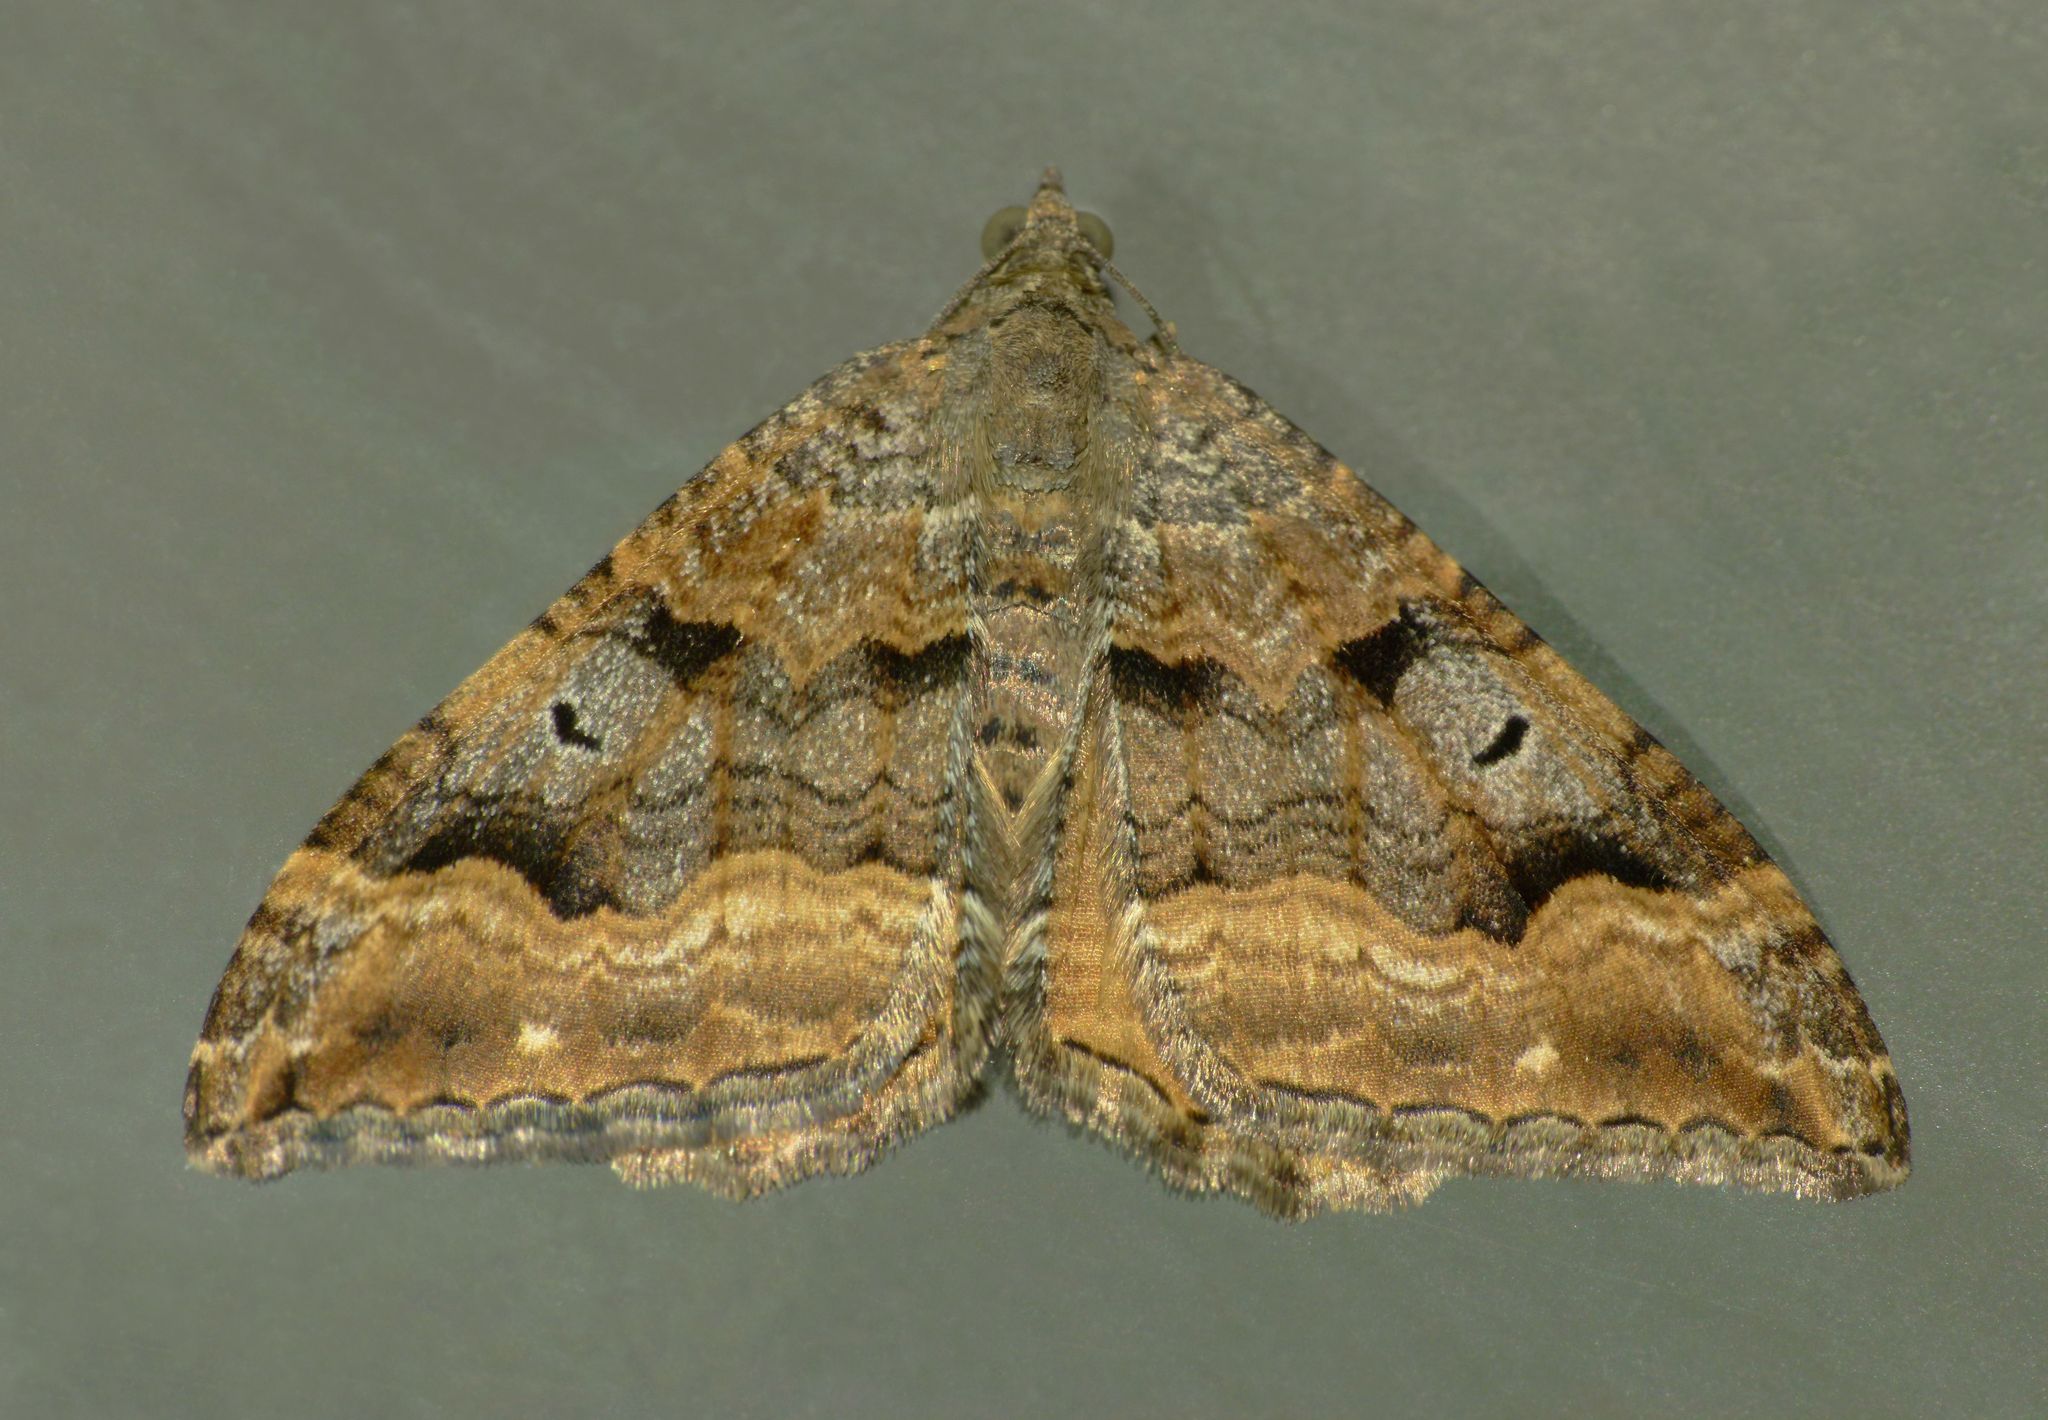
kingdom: Animalia
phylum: Arthropoda
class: Insecta
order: Lepidoptera
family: Geometridae
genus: Hydriomena
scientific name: Hydriomena deltoidata
